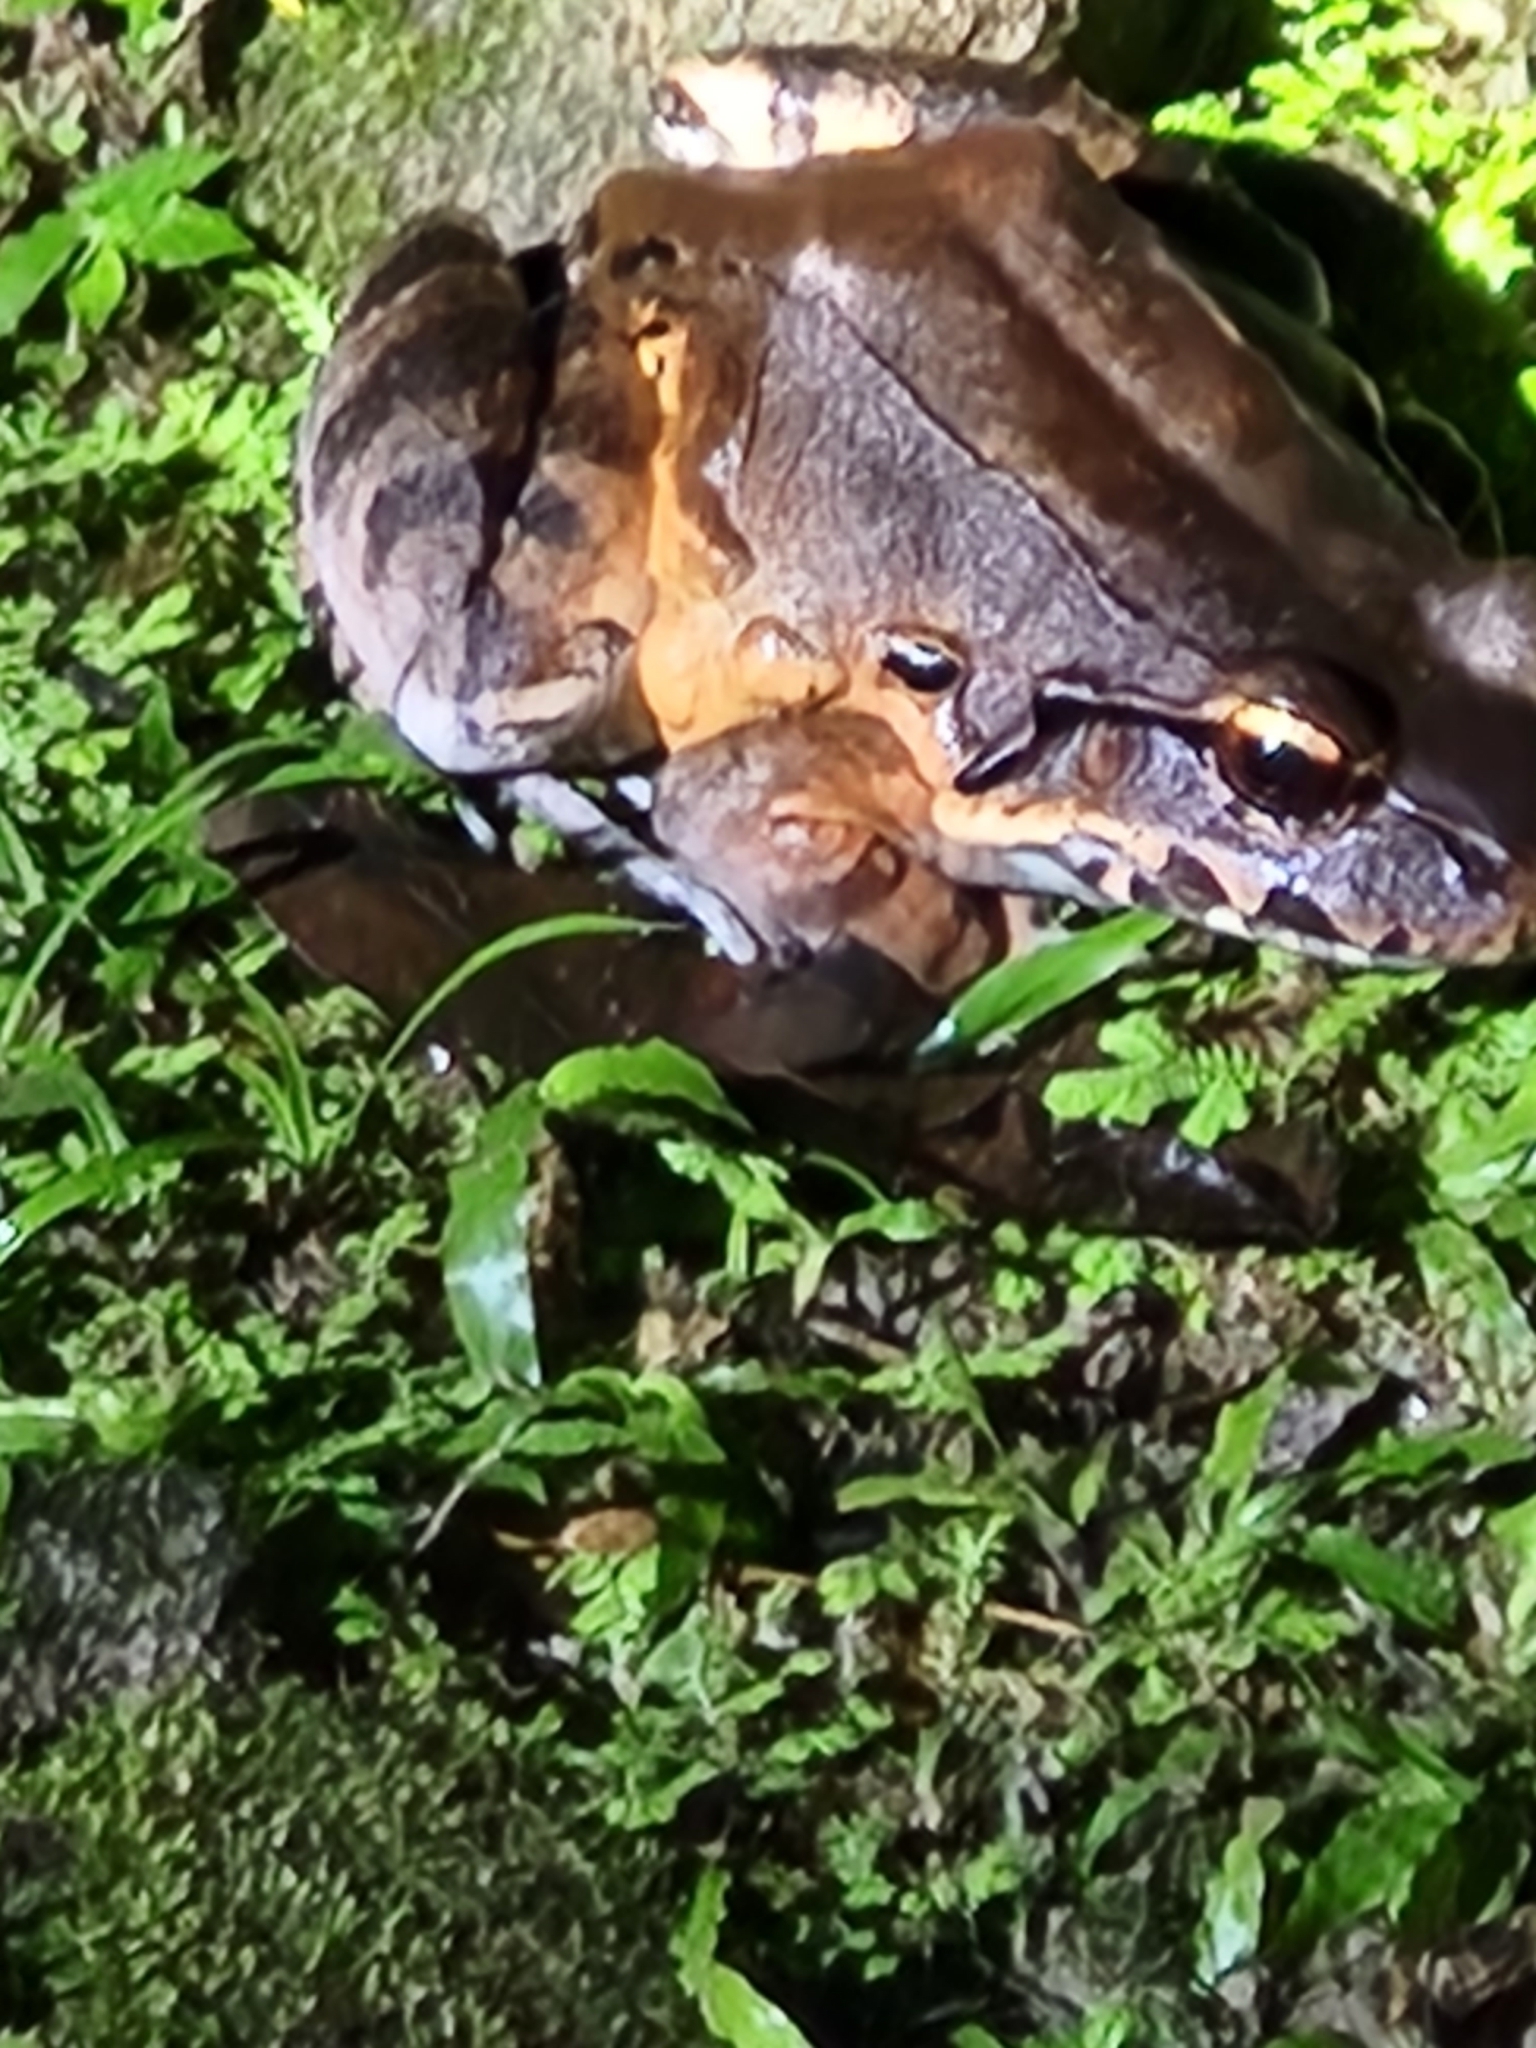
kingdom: Animalia
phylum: Chordata
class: Amphibia
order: Anura
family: Leptodactylidae
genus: Leptodactylus
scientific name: Leptodactylus savagei
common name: Savage's thin-toed frog
